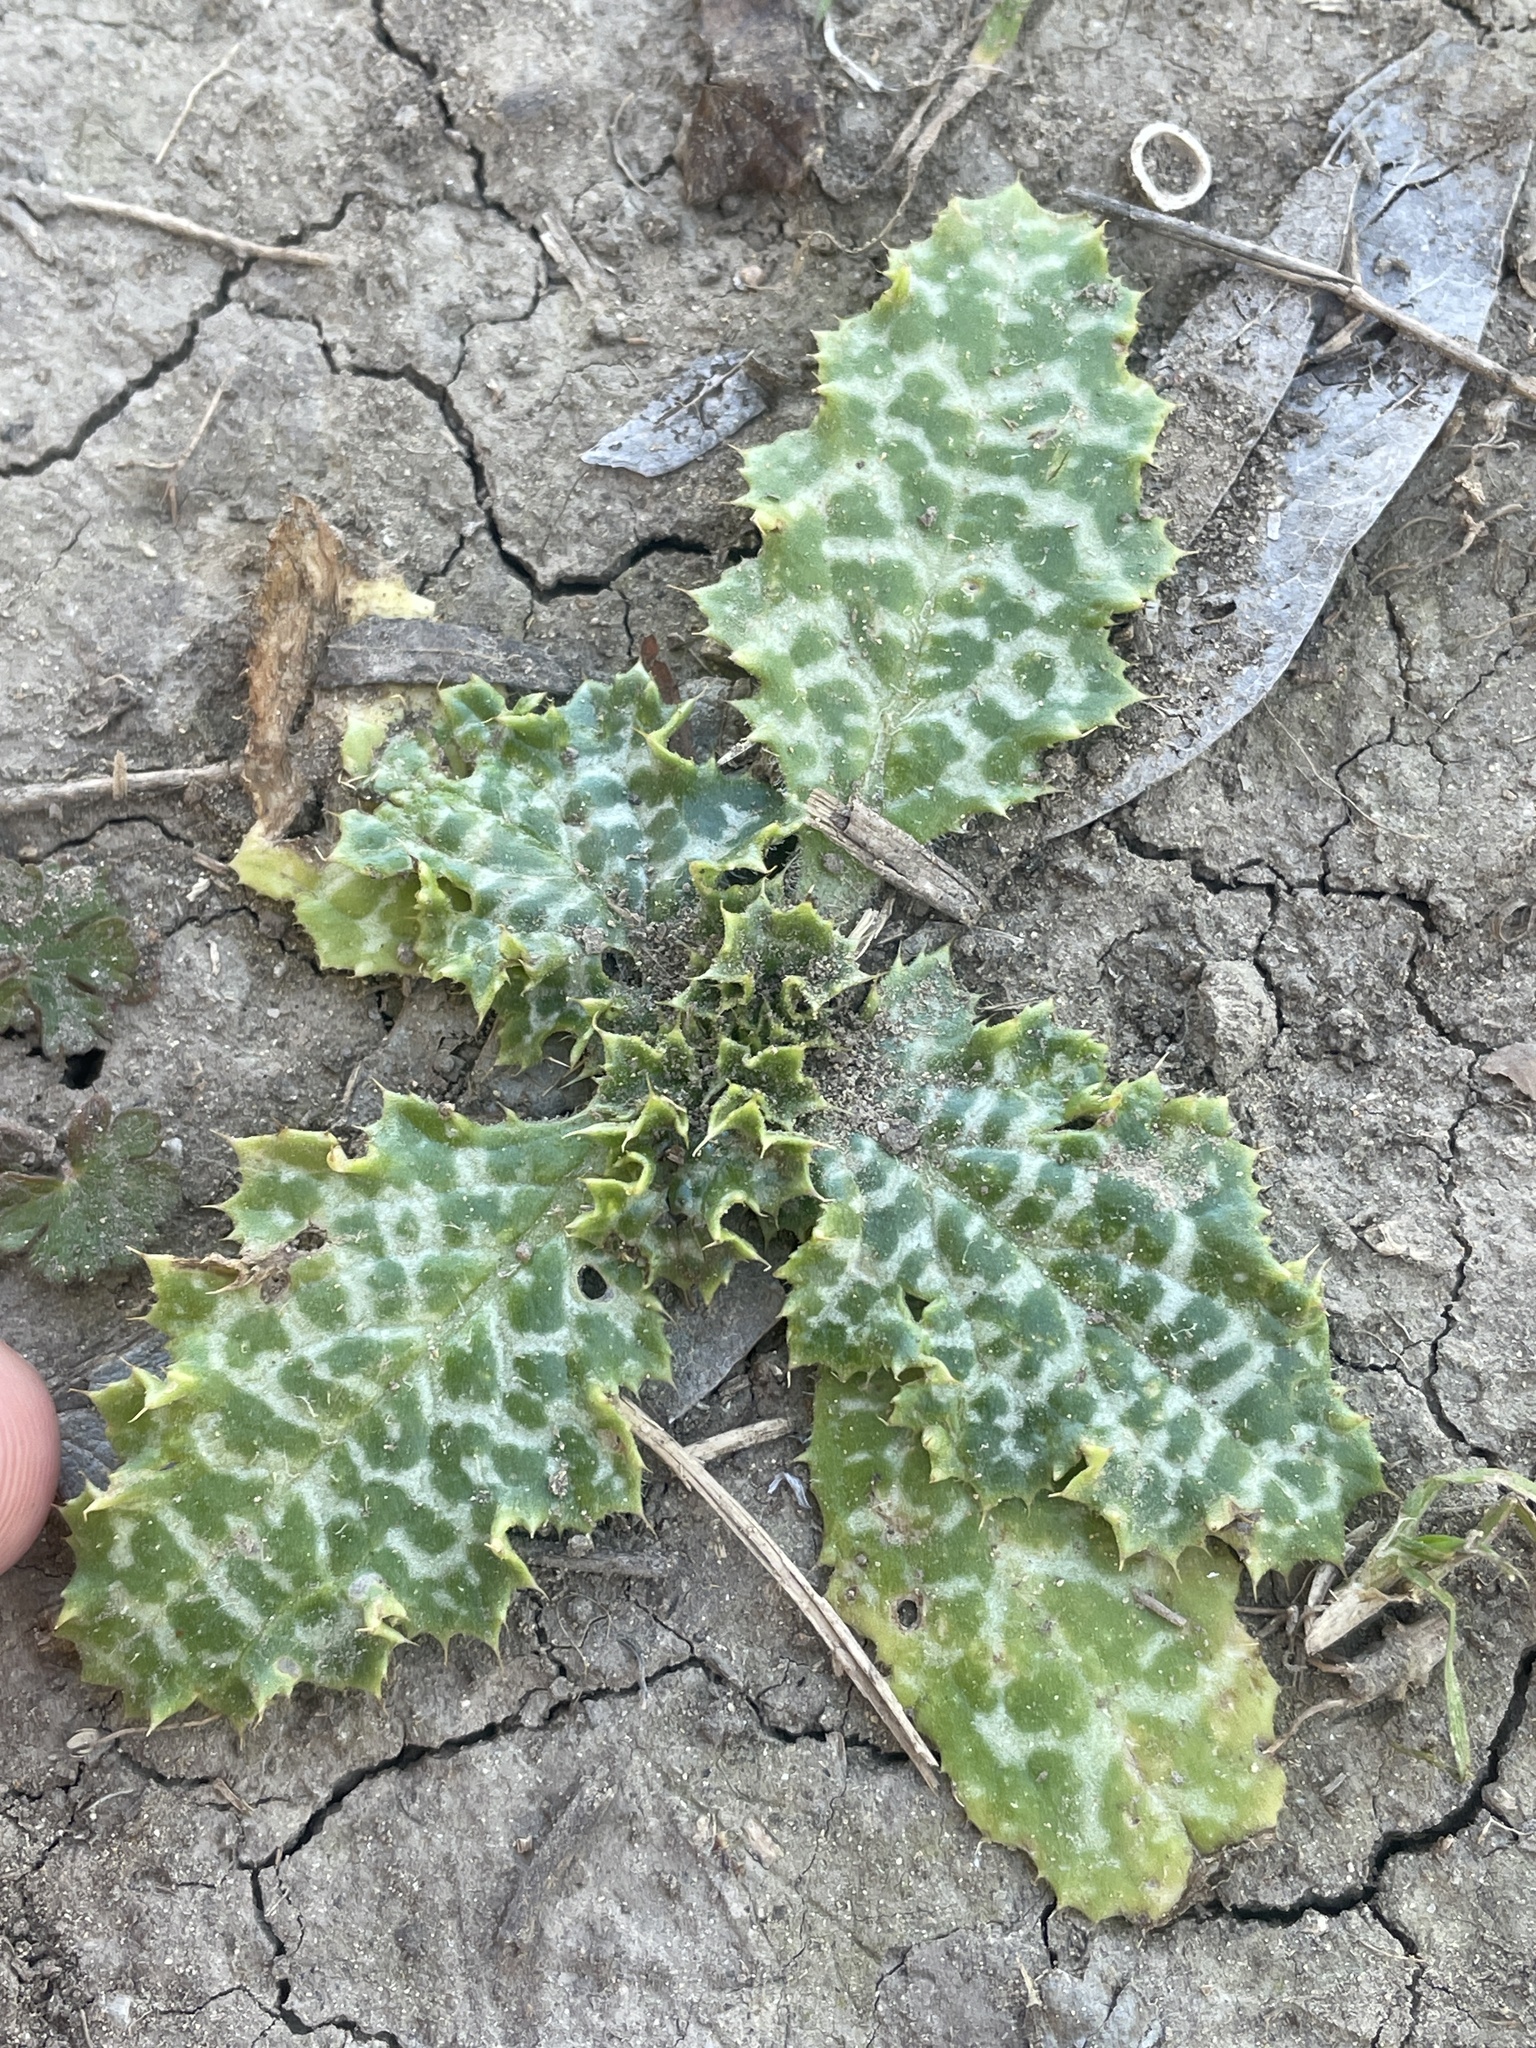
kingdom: Plantae
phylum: Tracheophyta
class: Magnoliopsida
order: Asterales
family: Asteraceae
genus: Silybum
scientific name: Silybum marianum
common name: Milk thistle
